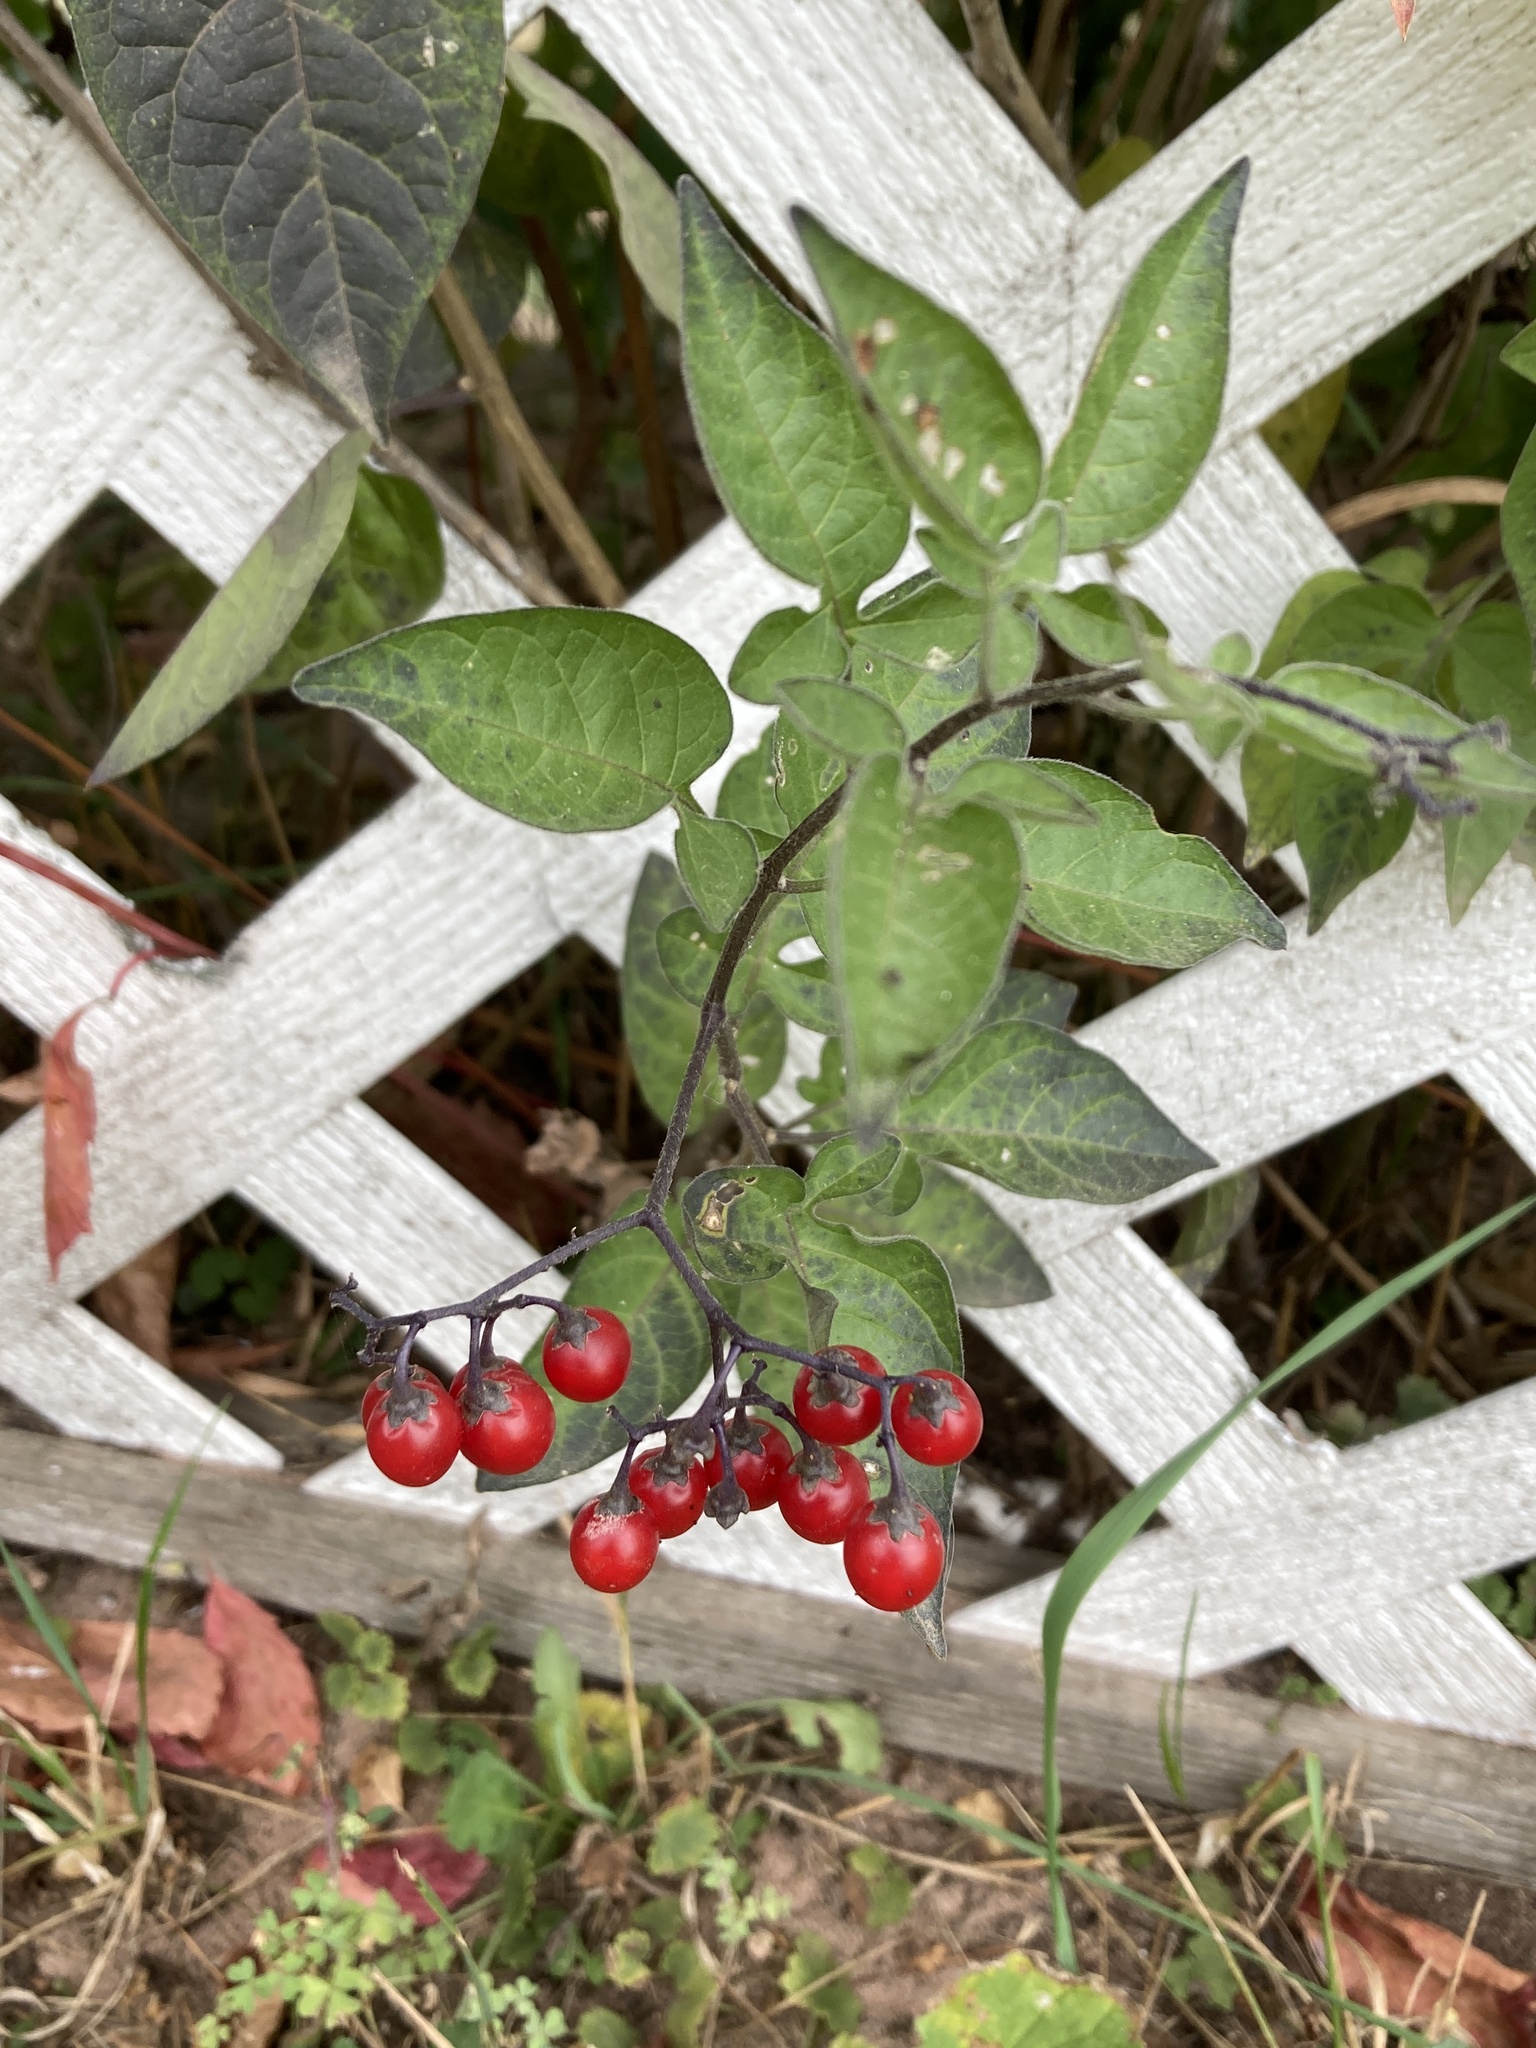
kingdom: Plantae
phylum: Tracheophyta
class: Magnoliopsida
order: Solanales
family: Solanaceae
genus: Solanum
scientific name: Solanum dulcamara
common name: Climbing nightshade
